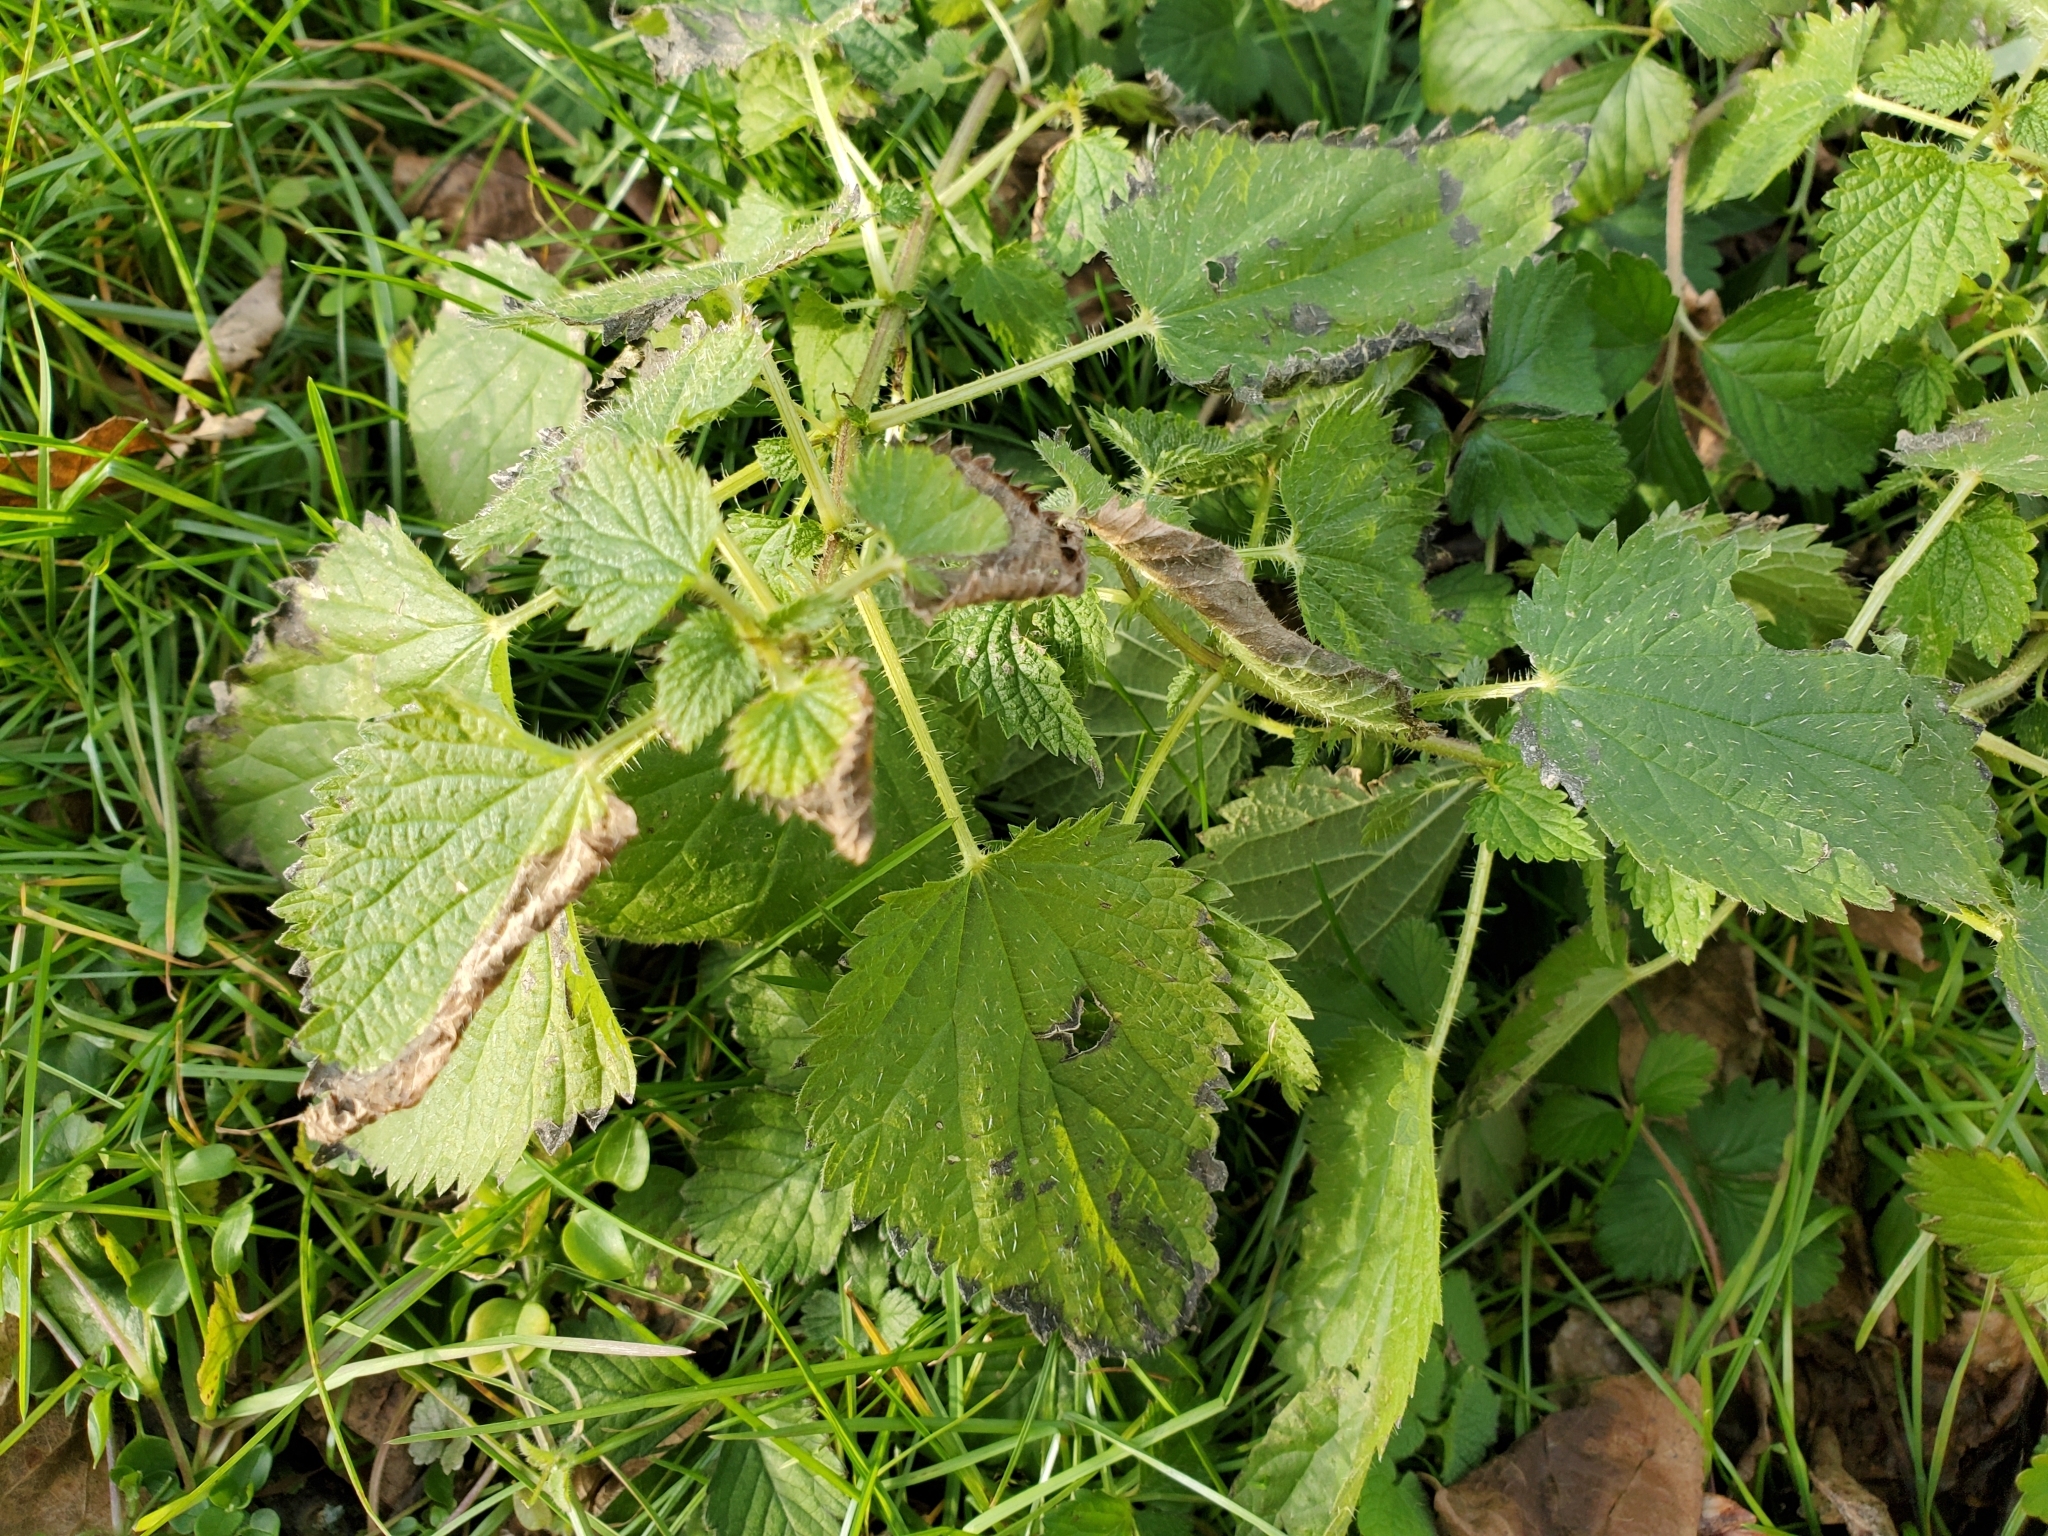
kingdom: Plantae
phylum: Tracheophyta
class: Magnoliopsida
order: Rosales
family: Urticaceae
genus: Urtica
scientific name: Urtica dioica
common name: Common nettle
